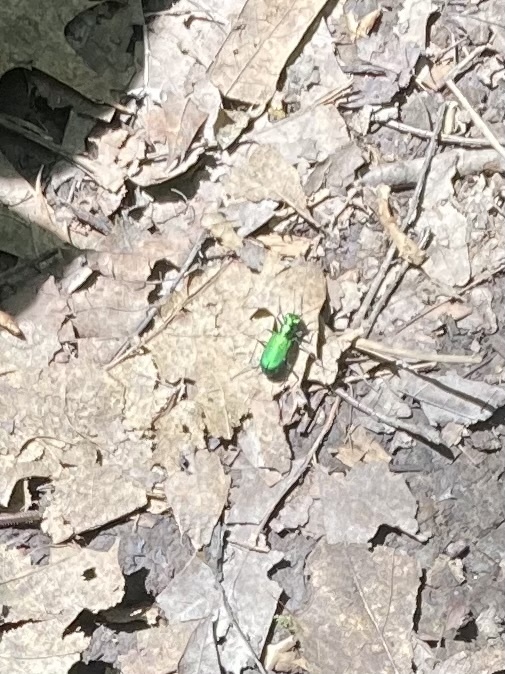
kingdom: Animalia
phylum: Arthropoda
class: Insecta
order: Coleoptera
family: Carabidae
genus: Cicindela
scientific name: Cicindela sexguttata
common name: Six-spotted tiger beetle
